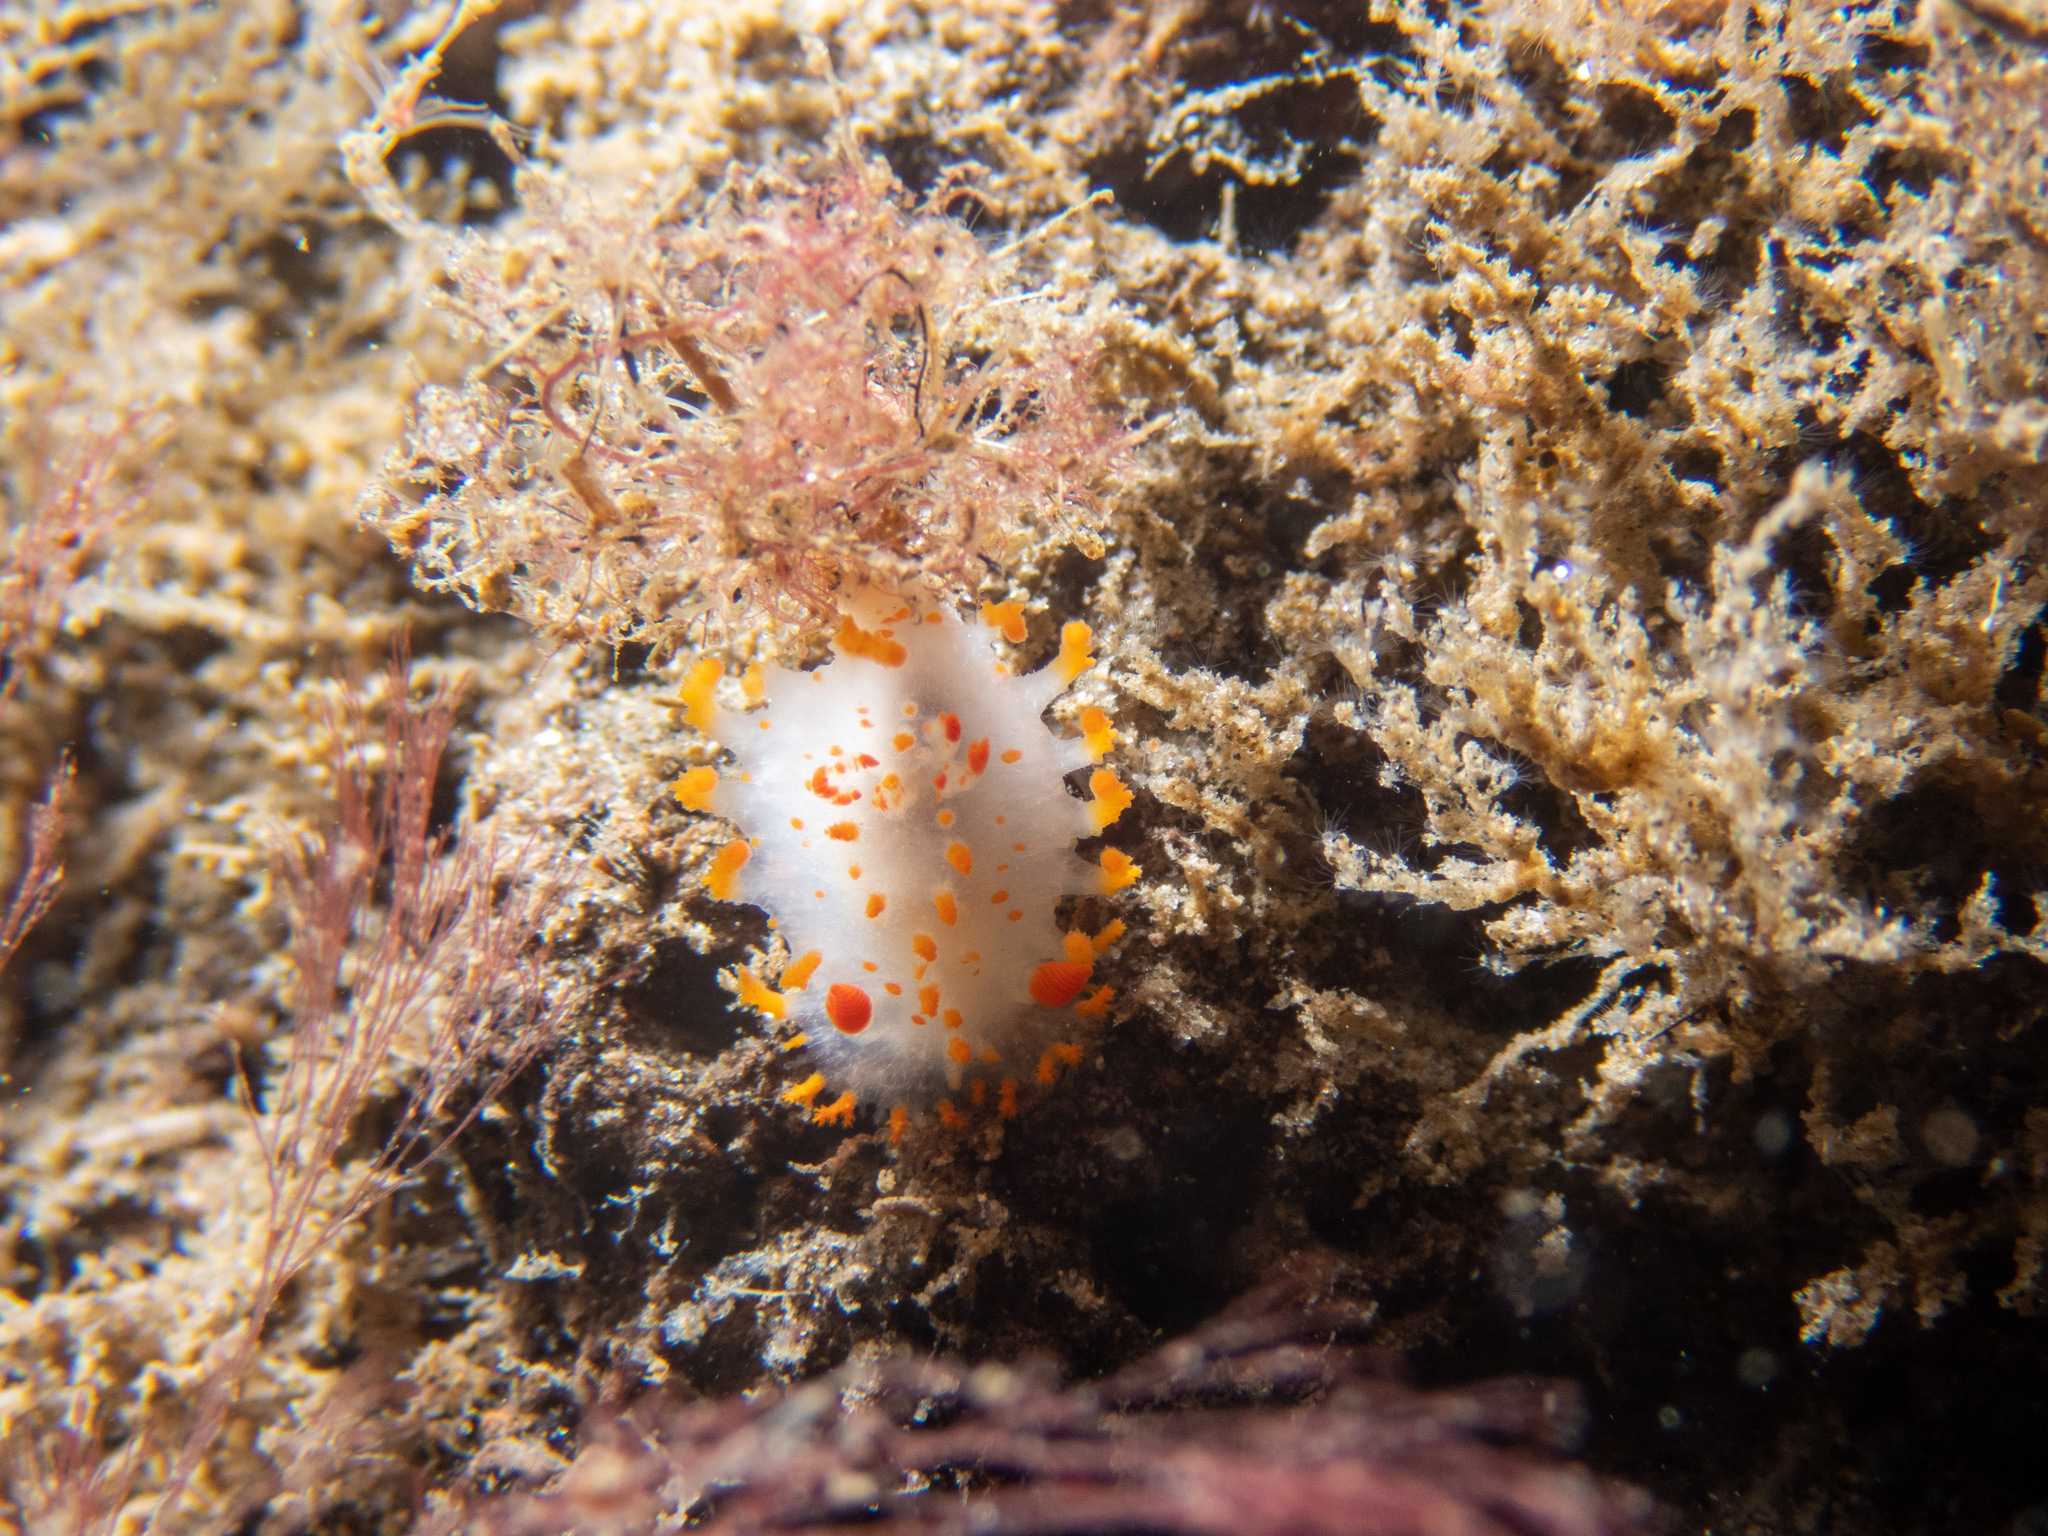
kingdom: Animalia
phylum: Mollusca
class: Gastropoda
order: Nudibranchia
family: Polyceridae
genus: Triopha
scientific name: Triopha catalinae
